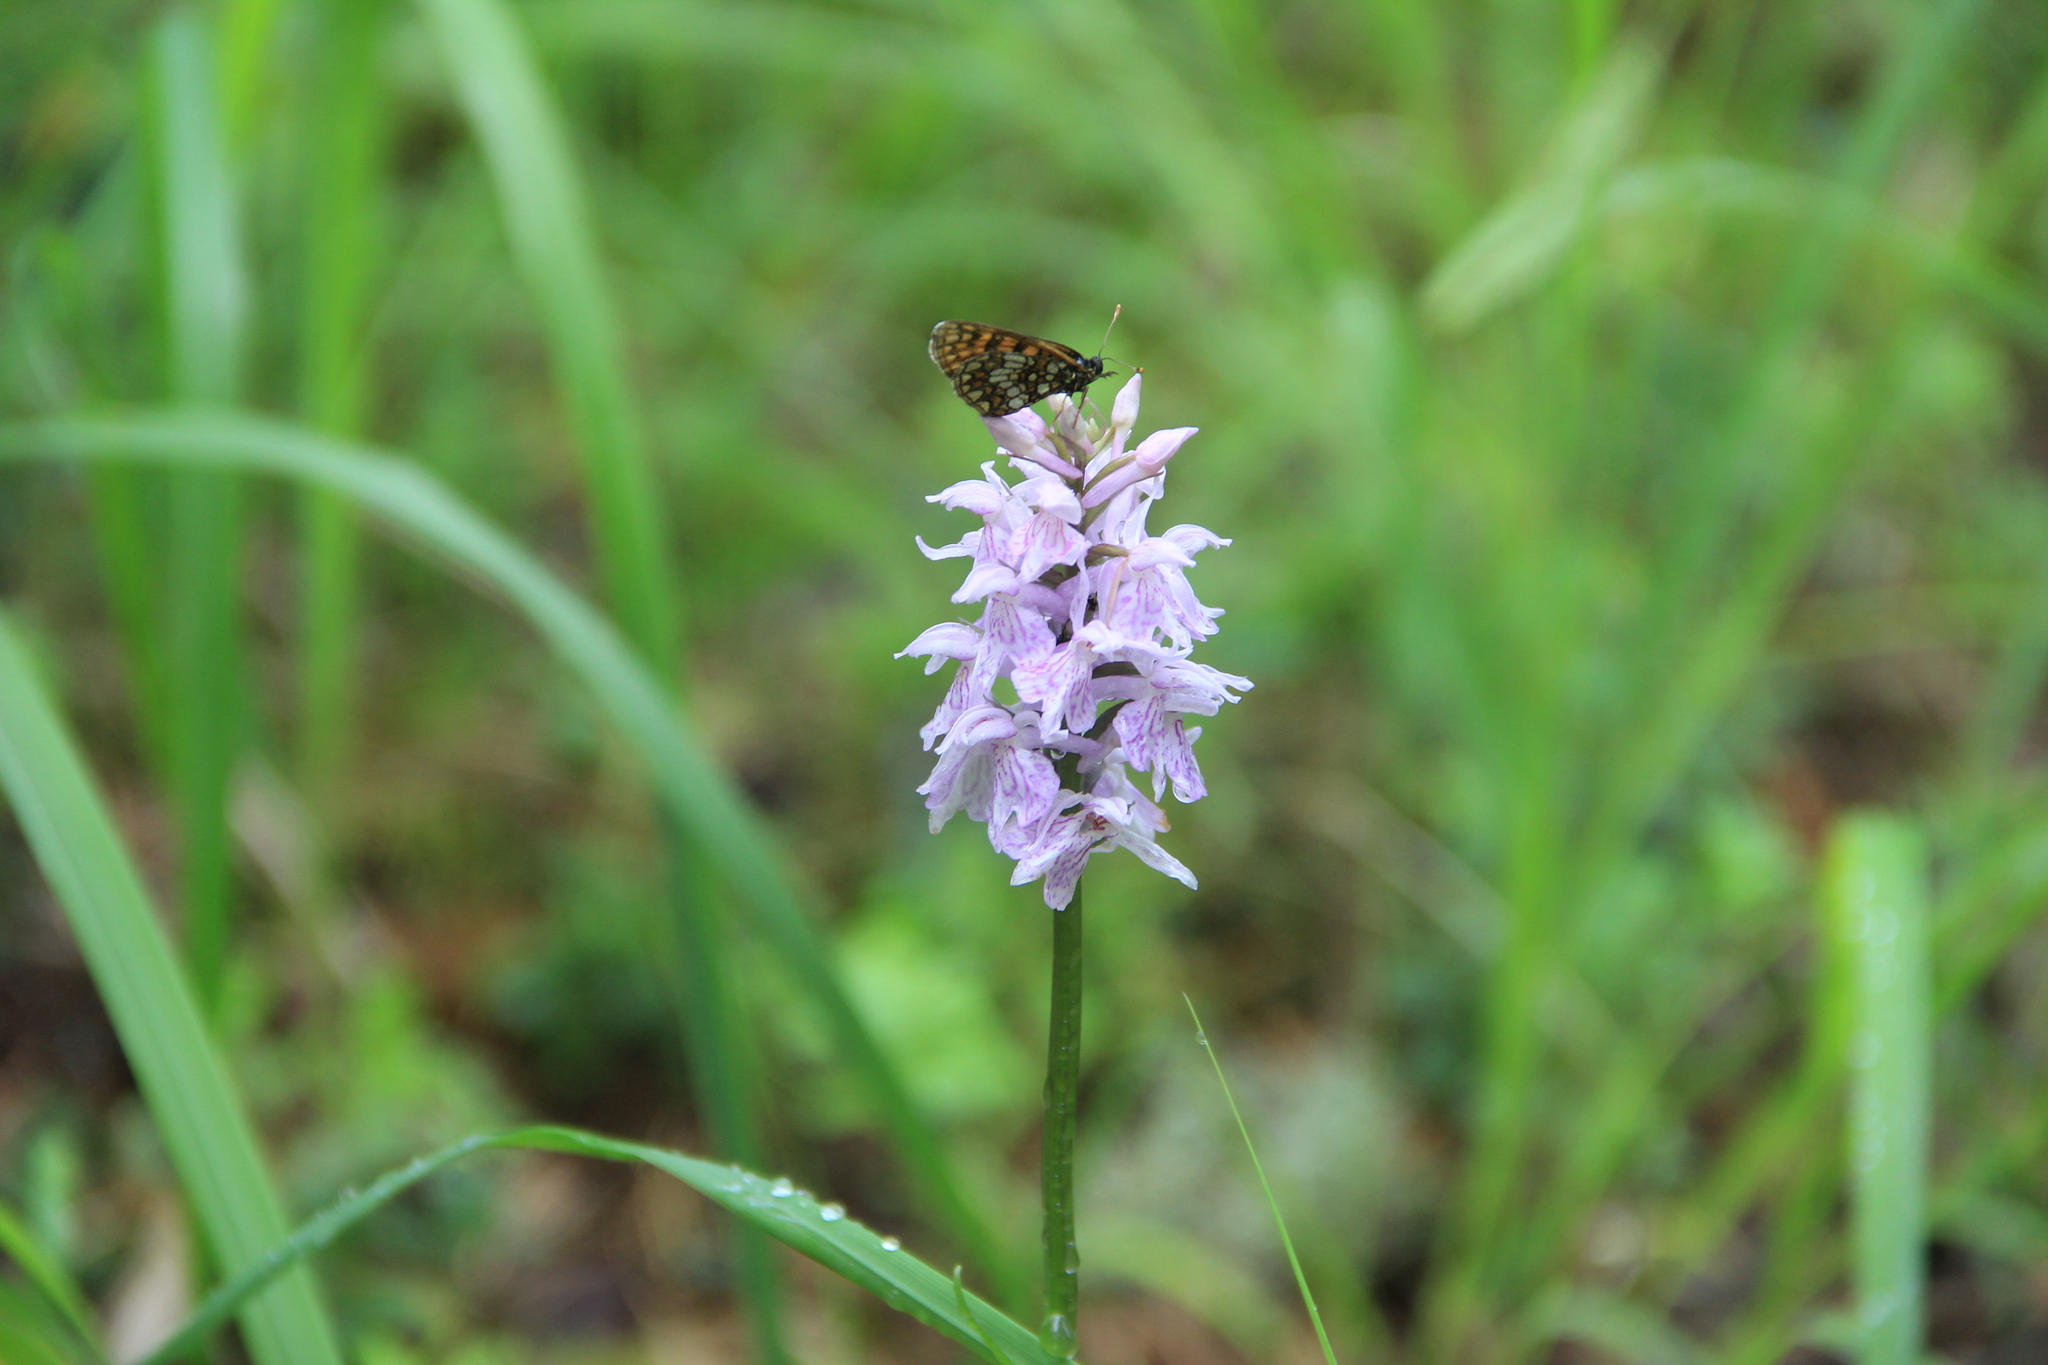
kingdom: Animalia
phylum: Arthropoda
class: Insecta
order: Lepidoptera
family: Nymphalidae
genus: Melitaea
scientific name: Melitaea
